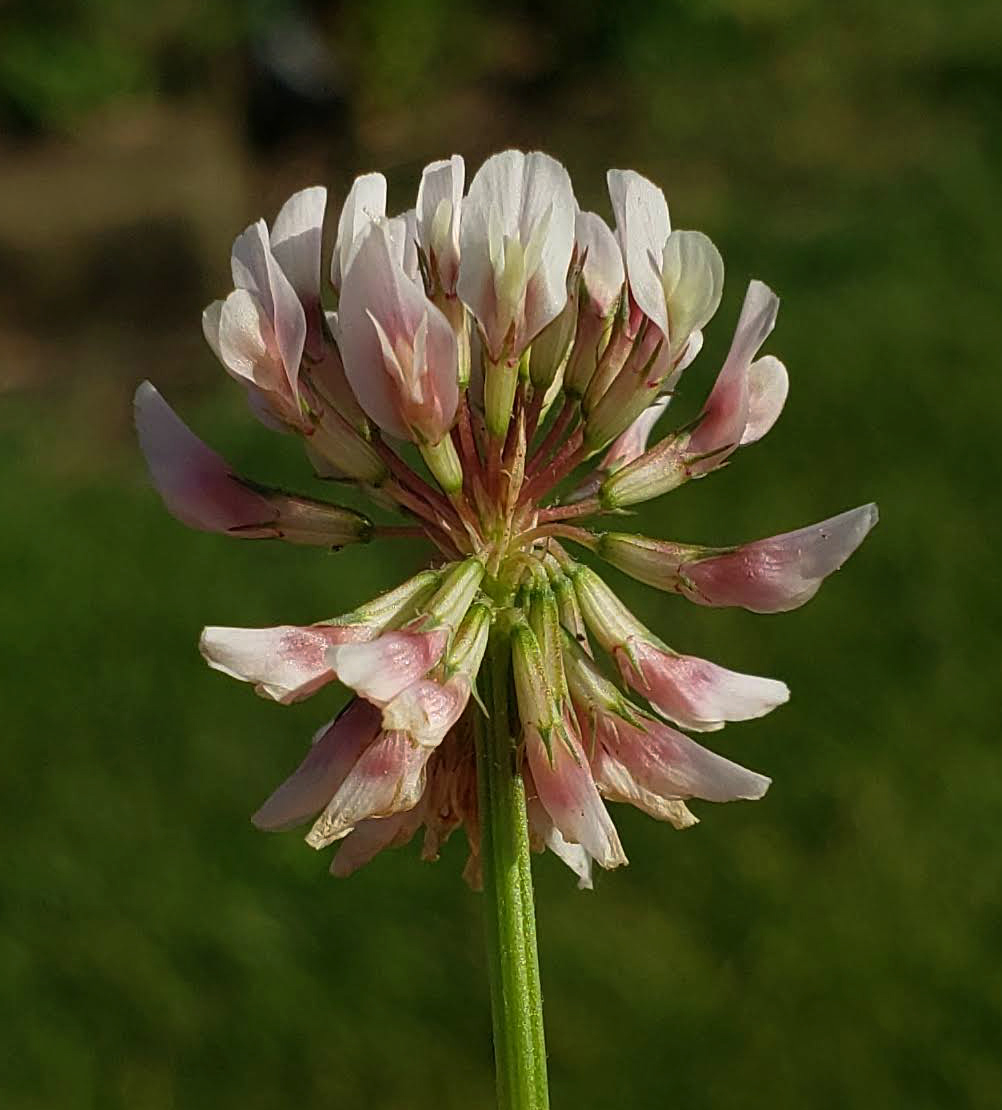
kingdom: Plantae
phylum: Tracheophyta
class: Magnoliopsida
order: Fabales
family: Fabaceae
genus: Trifolium
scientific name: Trifolium repens
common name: White clover
